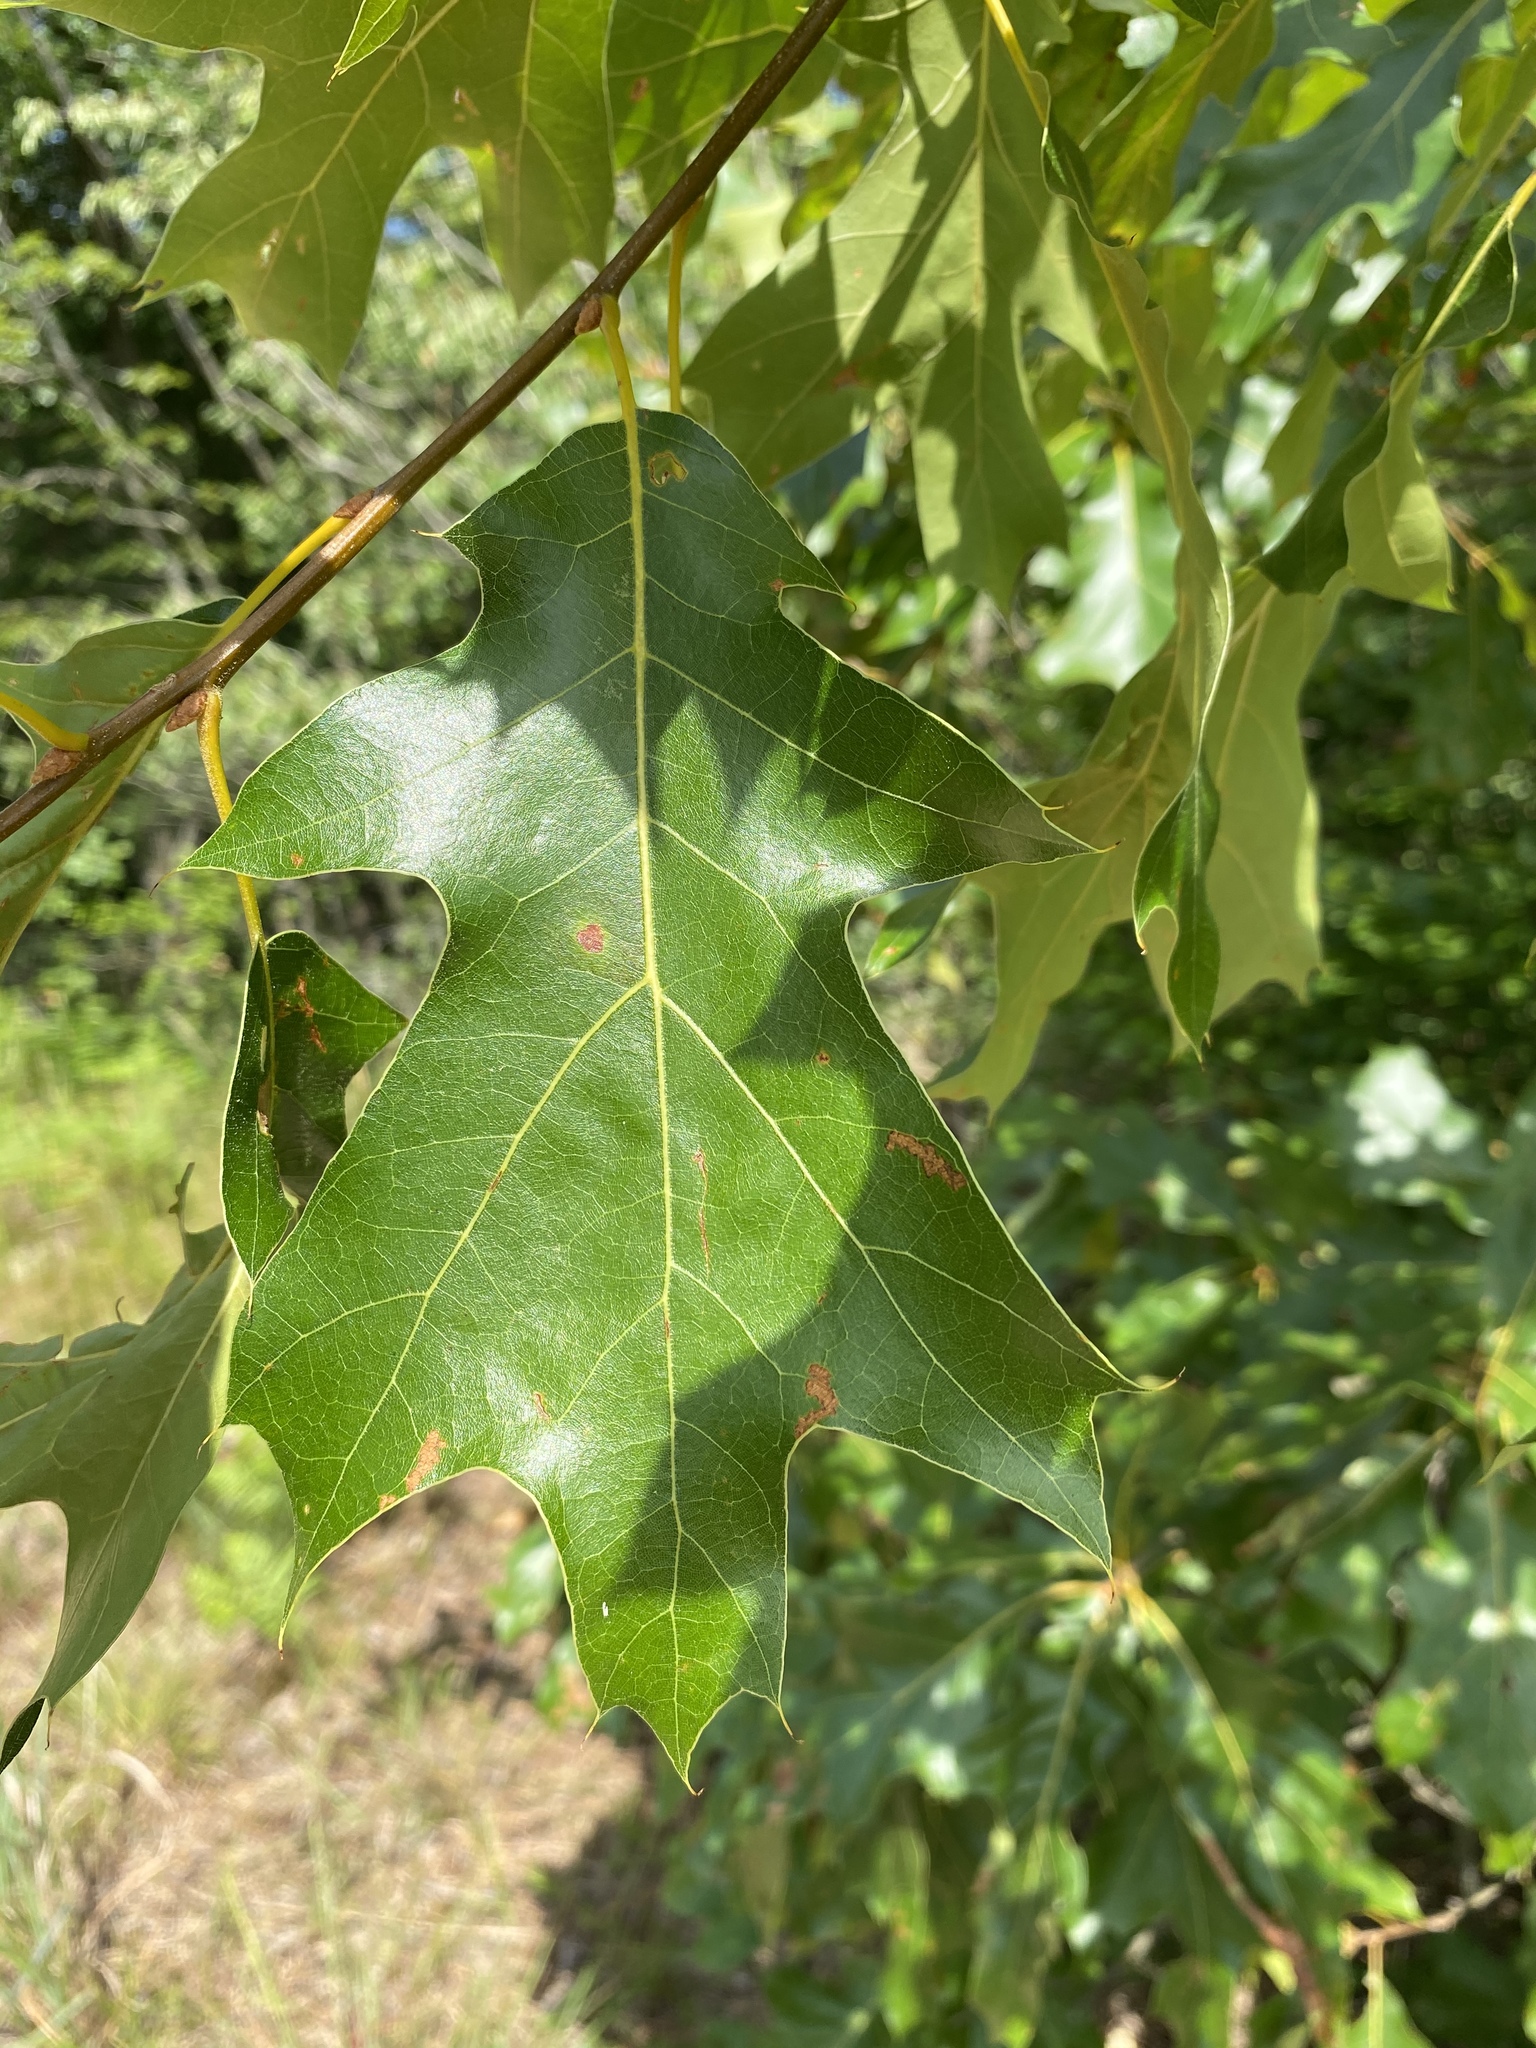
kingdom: Plantae
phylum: Tracheophyta
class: Magnoliopsida
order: Fagales
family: Fagaceae
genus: Quercus
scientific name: Quercus velutina
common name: Black oak
